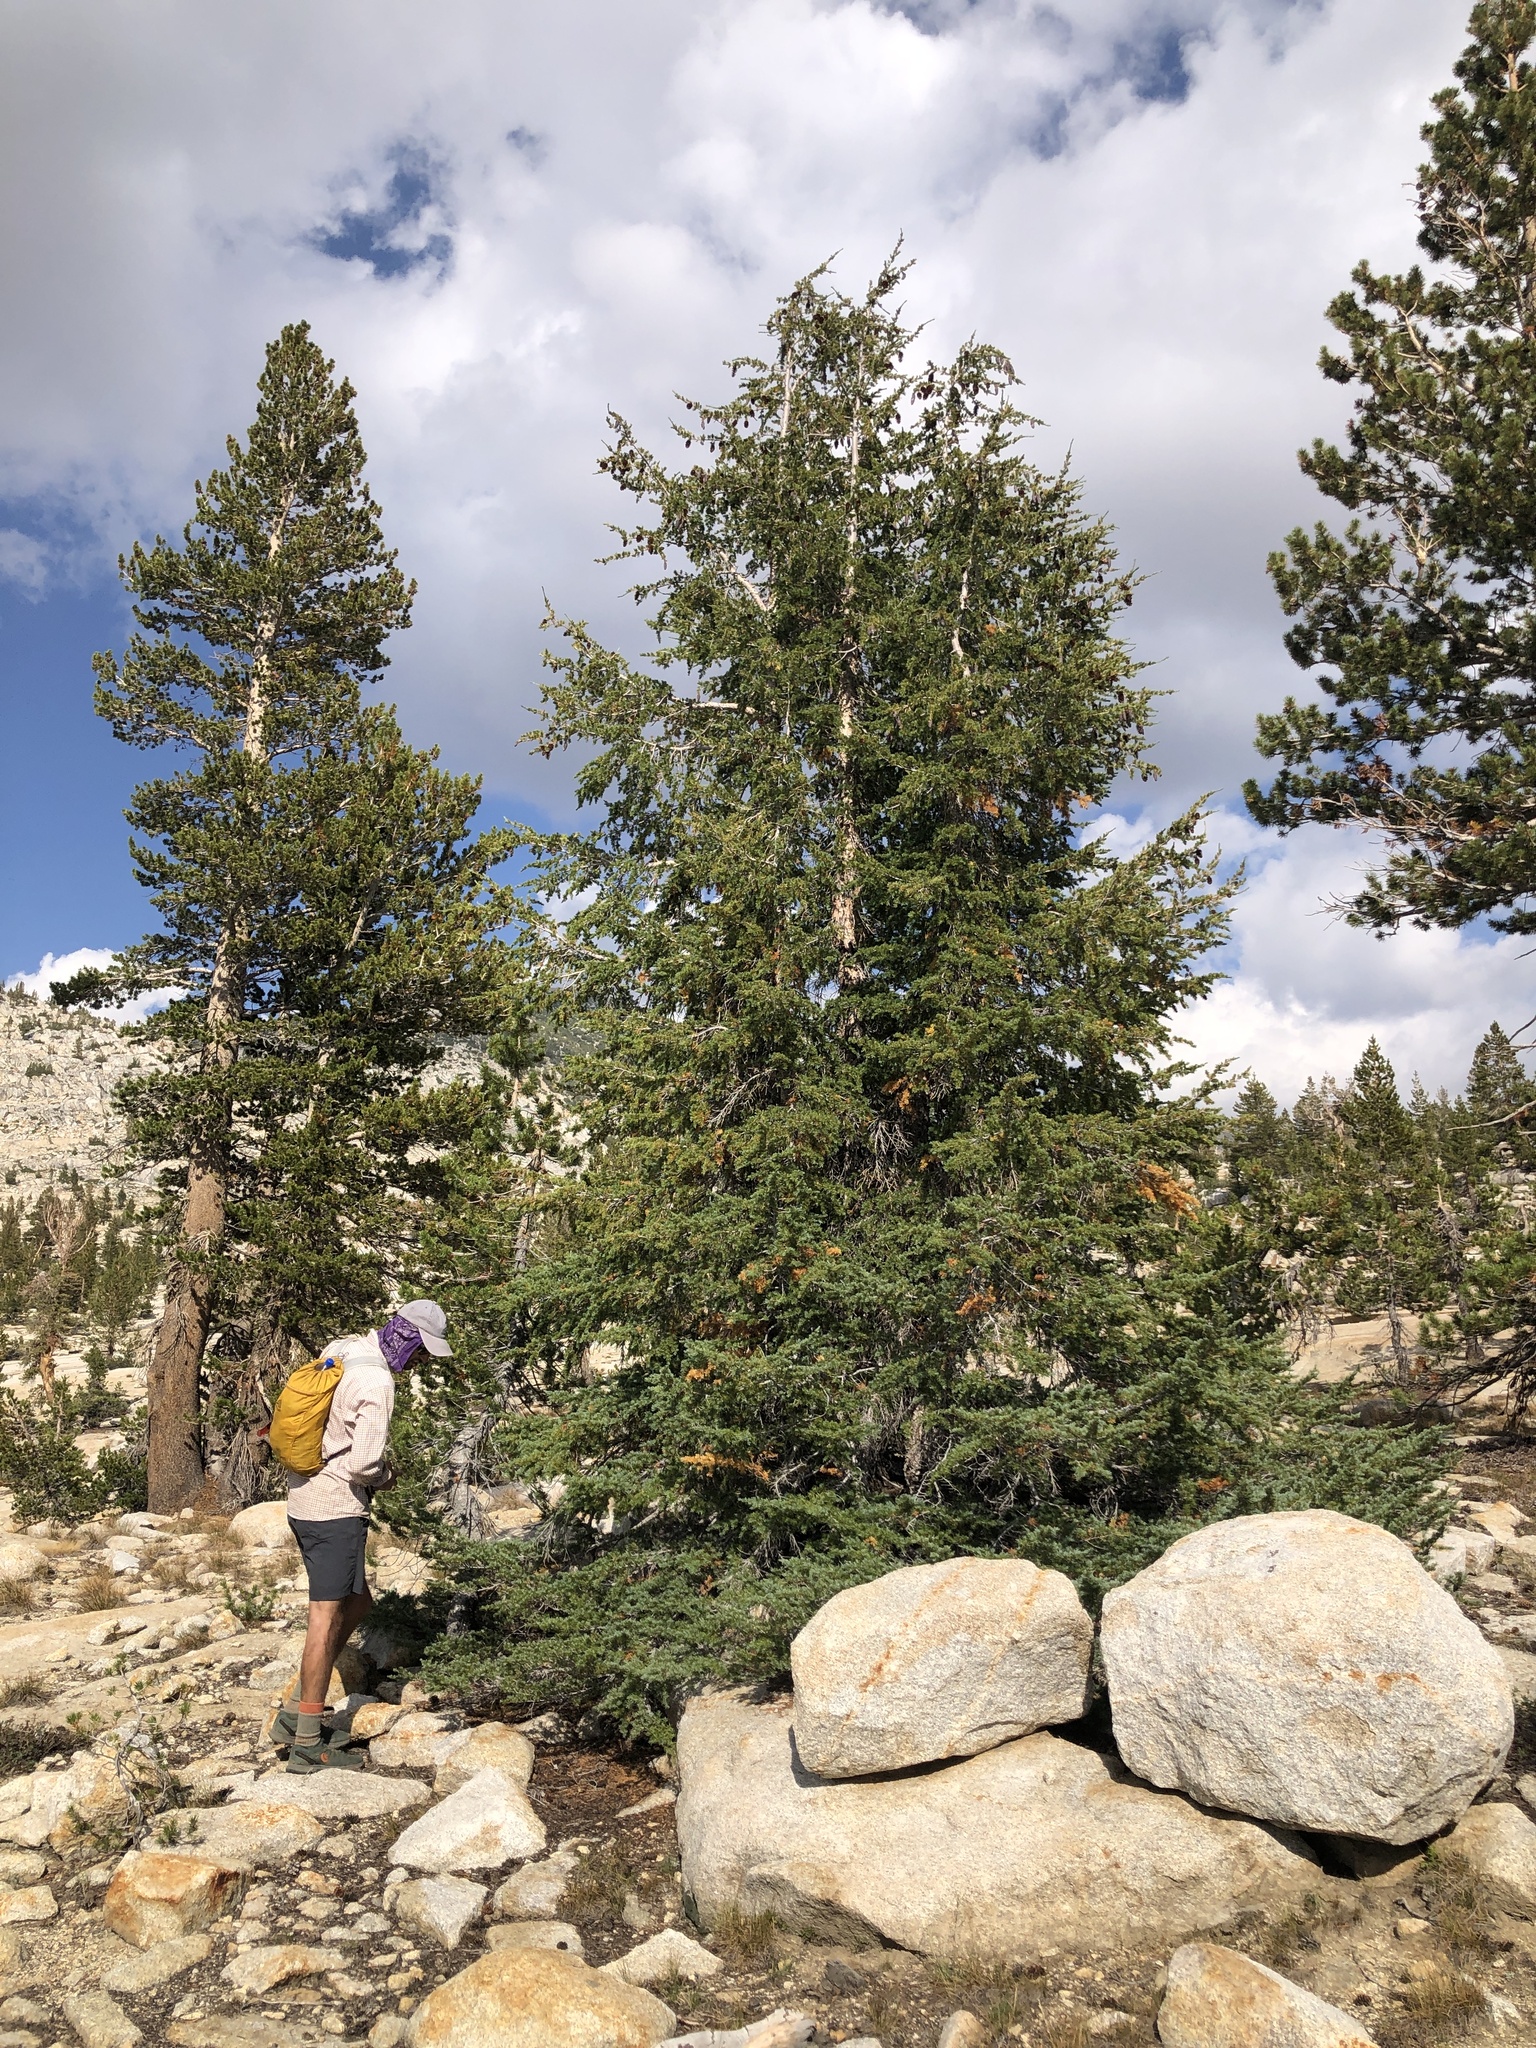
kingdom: Plantae
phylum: Tracheophyta
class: Pinopsida
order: Pinales
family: Pinaceae
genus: Tsuga
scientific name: Tsuga mertensiana
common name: Mountain hemlock
